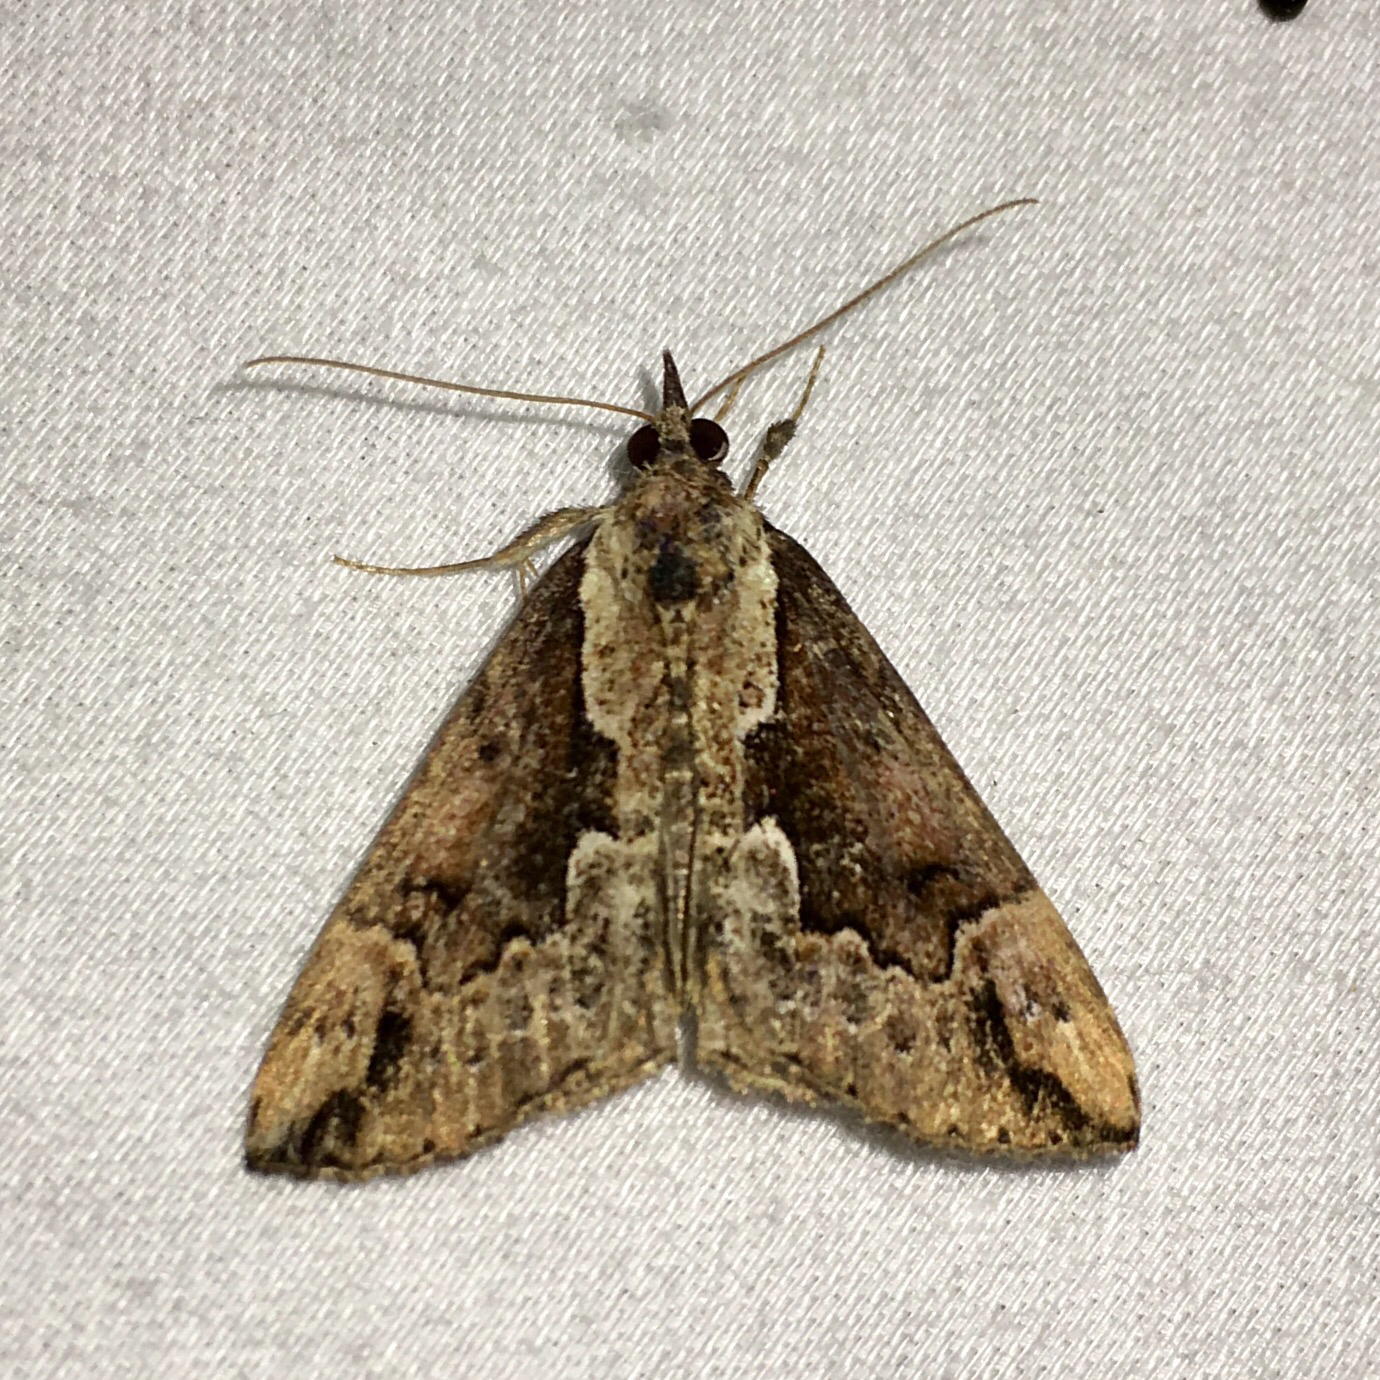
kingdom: Animalia
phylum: Arthropoda
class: Insecta
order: Lepidoptera
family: Erebidae
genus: Hypena
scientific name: Hypena baltimoralis
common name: Baltimore snout
